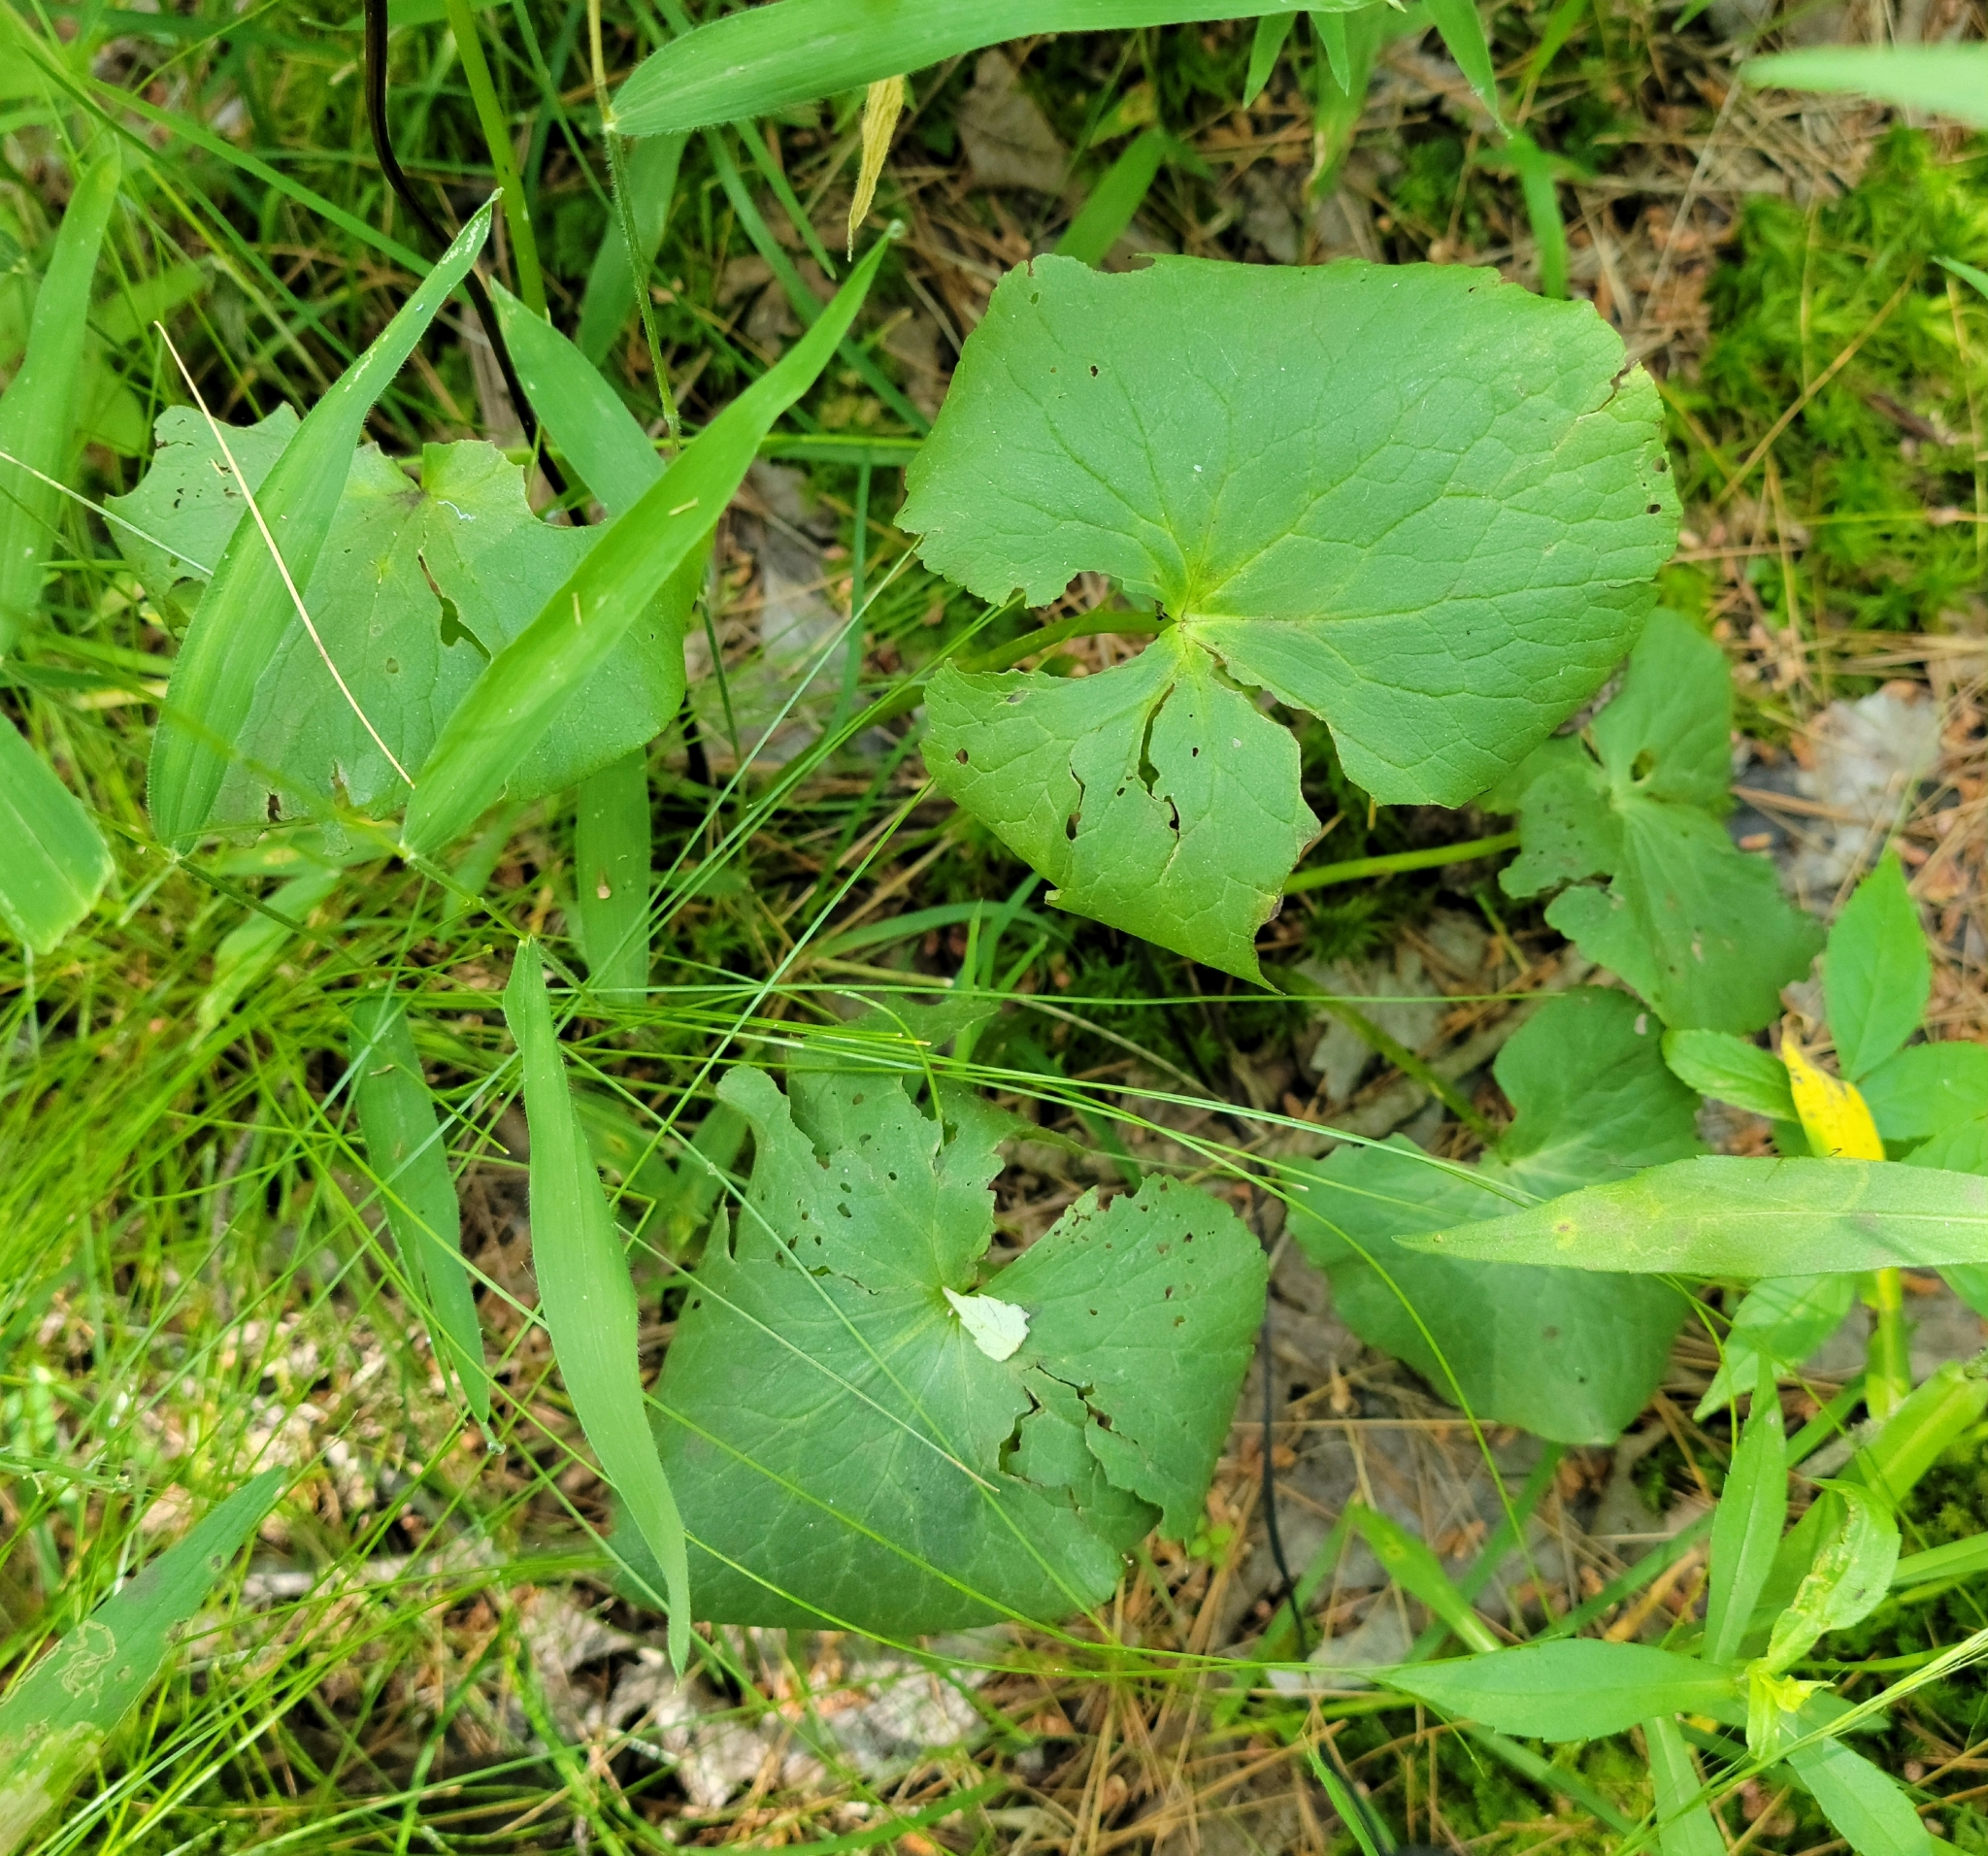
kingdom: Plantae
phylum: Tracheophyta
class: Magnoliopsida
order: Ranunculales
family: Ranunculaceae
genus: Caltha
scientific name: Caltha palustris
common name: Marsh marigold
